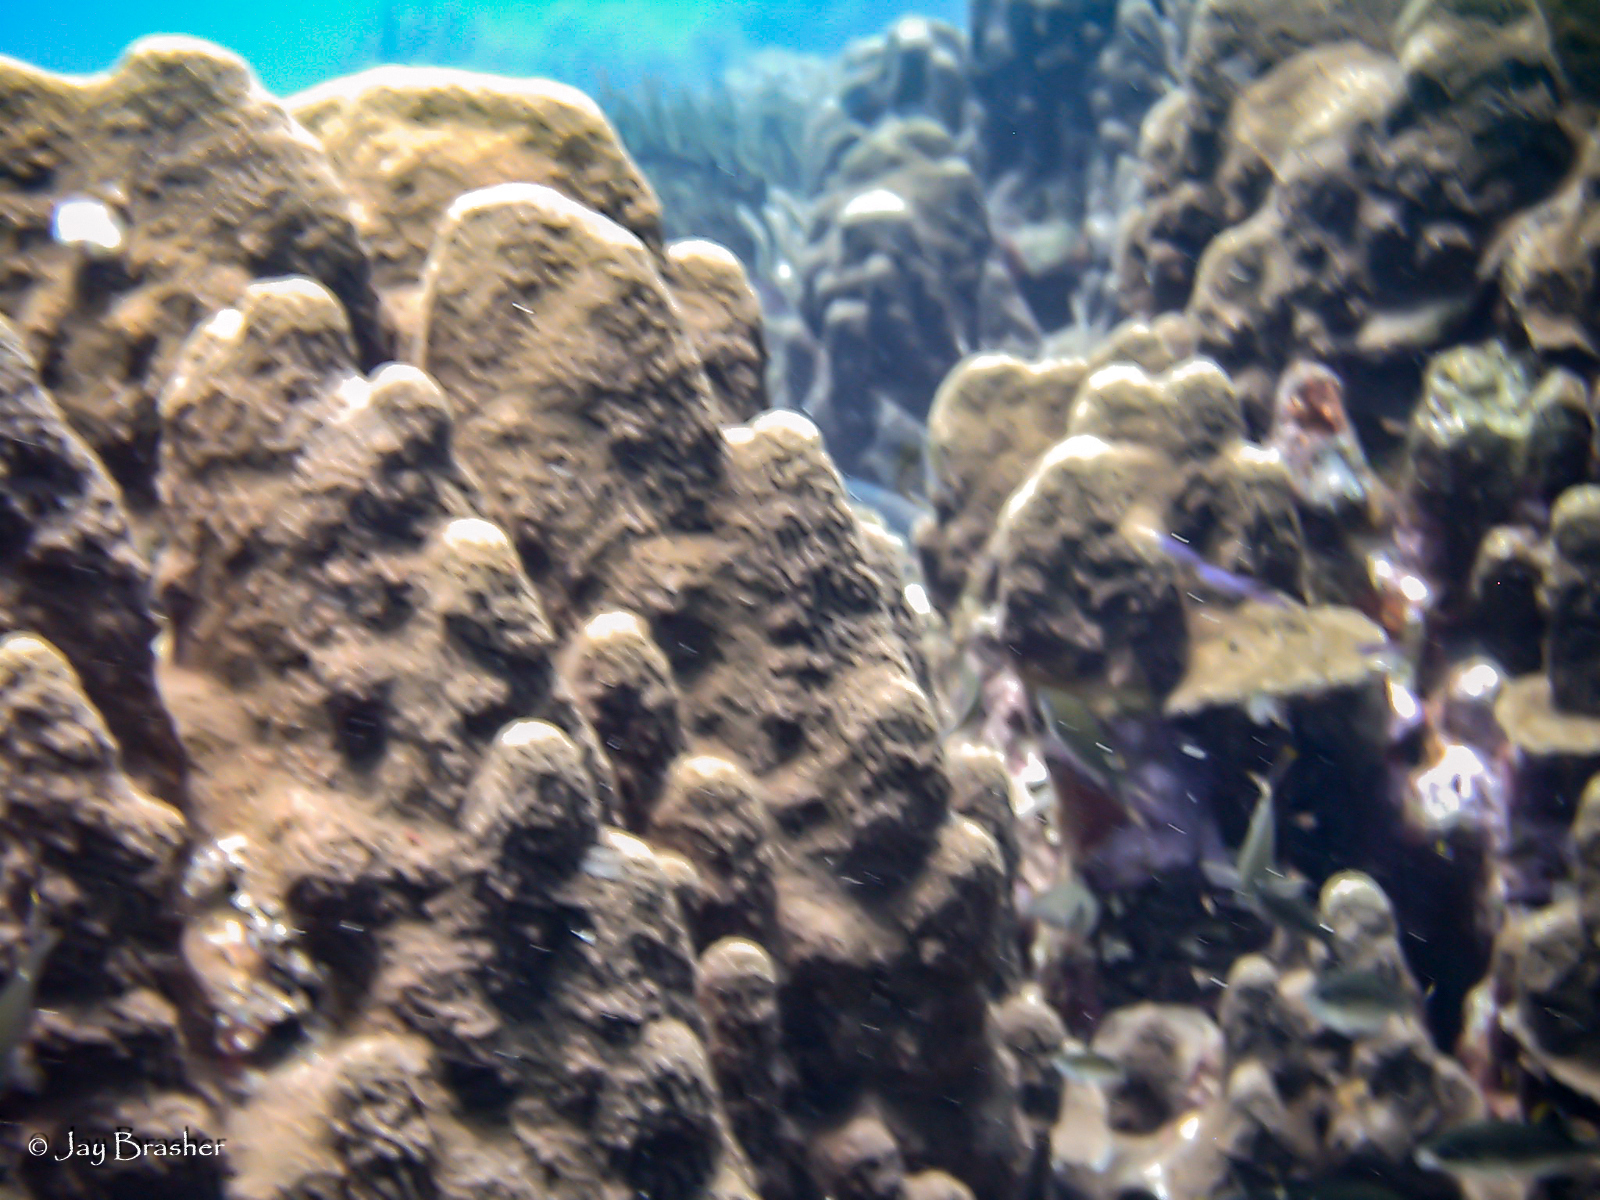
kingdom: Animalia
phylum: Cnidaria
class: Anthozoa
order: Scleractinia
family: Merulinidae
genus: Orbicella
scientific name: Orbicella faveolata
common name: Mountainous star coral
